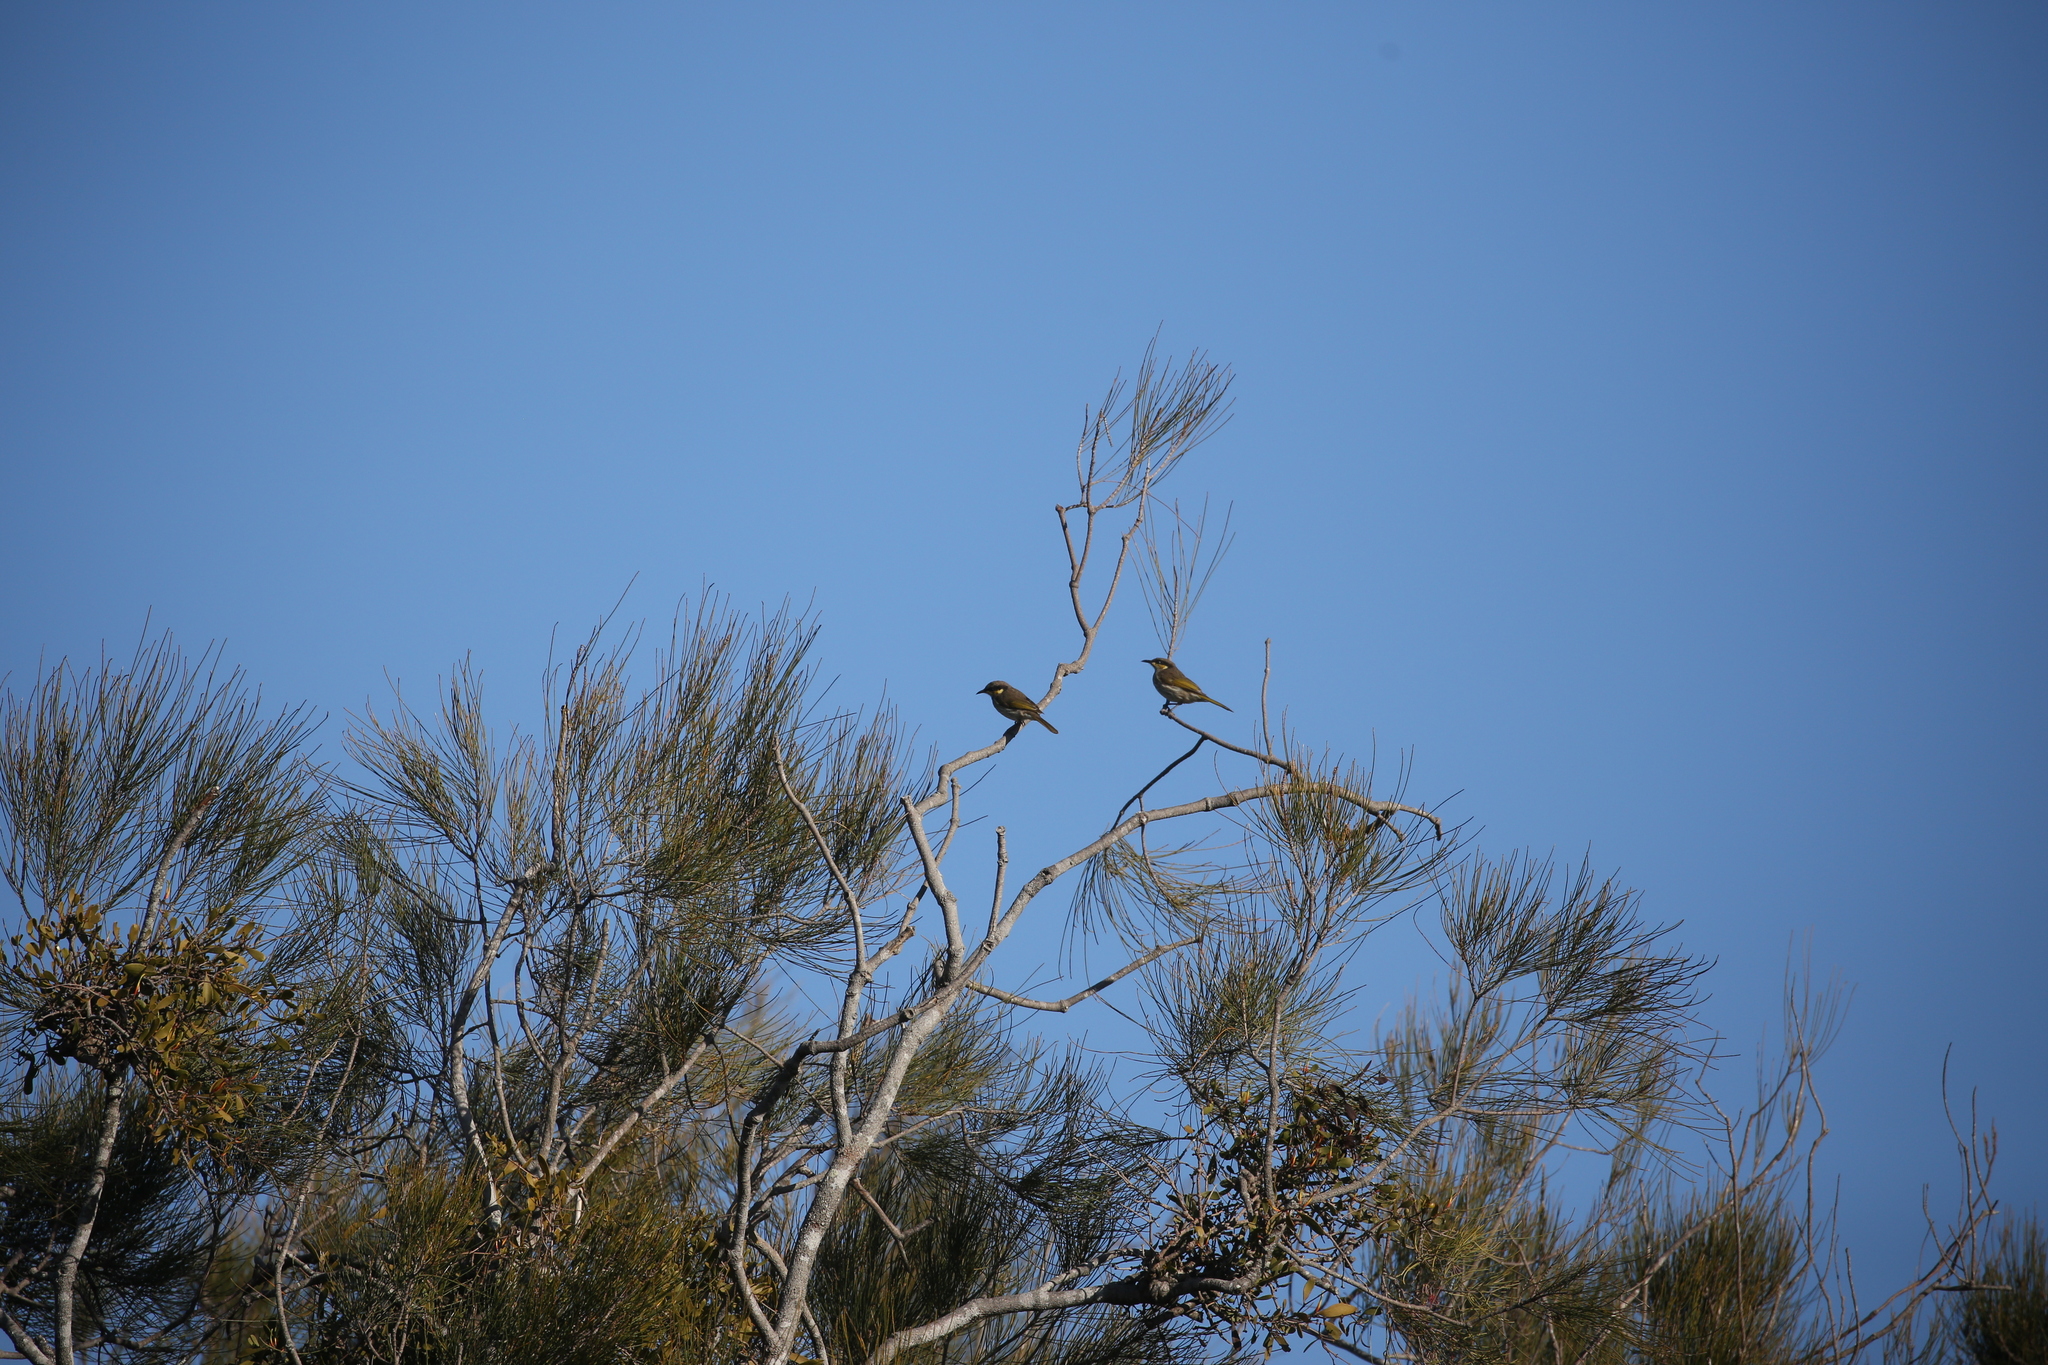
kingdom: Animalia
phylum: Chordata
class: Aves
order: Passeriformes
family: Meliphagidae
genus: Gavicalis
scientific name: Gavicalis fasciogularis
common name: Mangrove honeyeater
